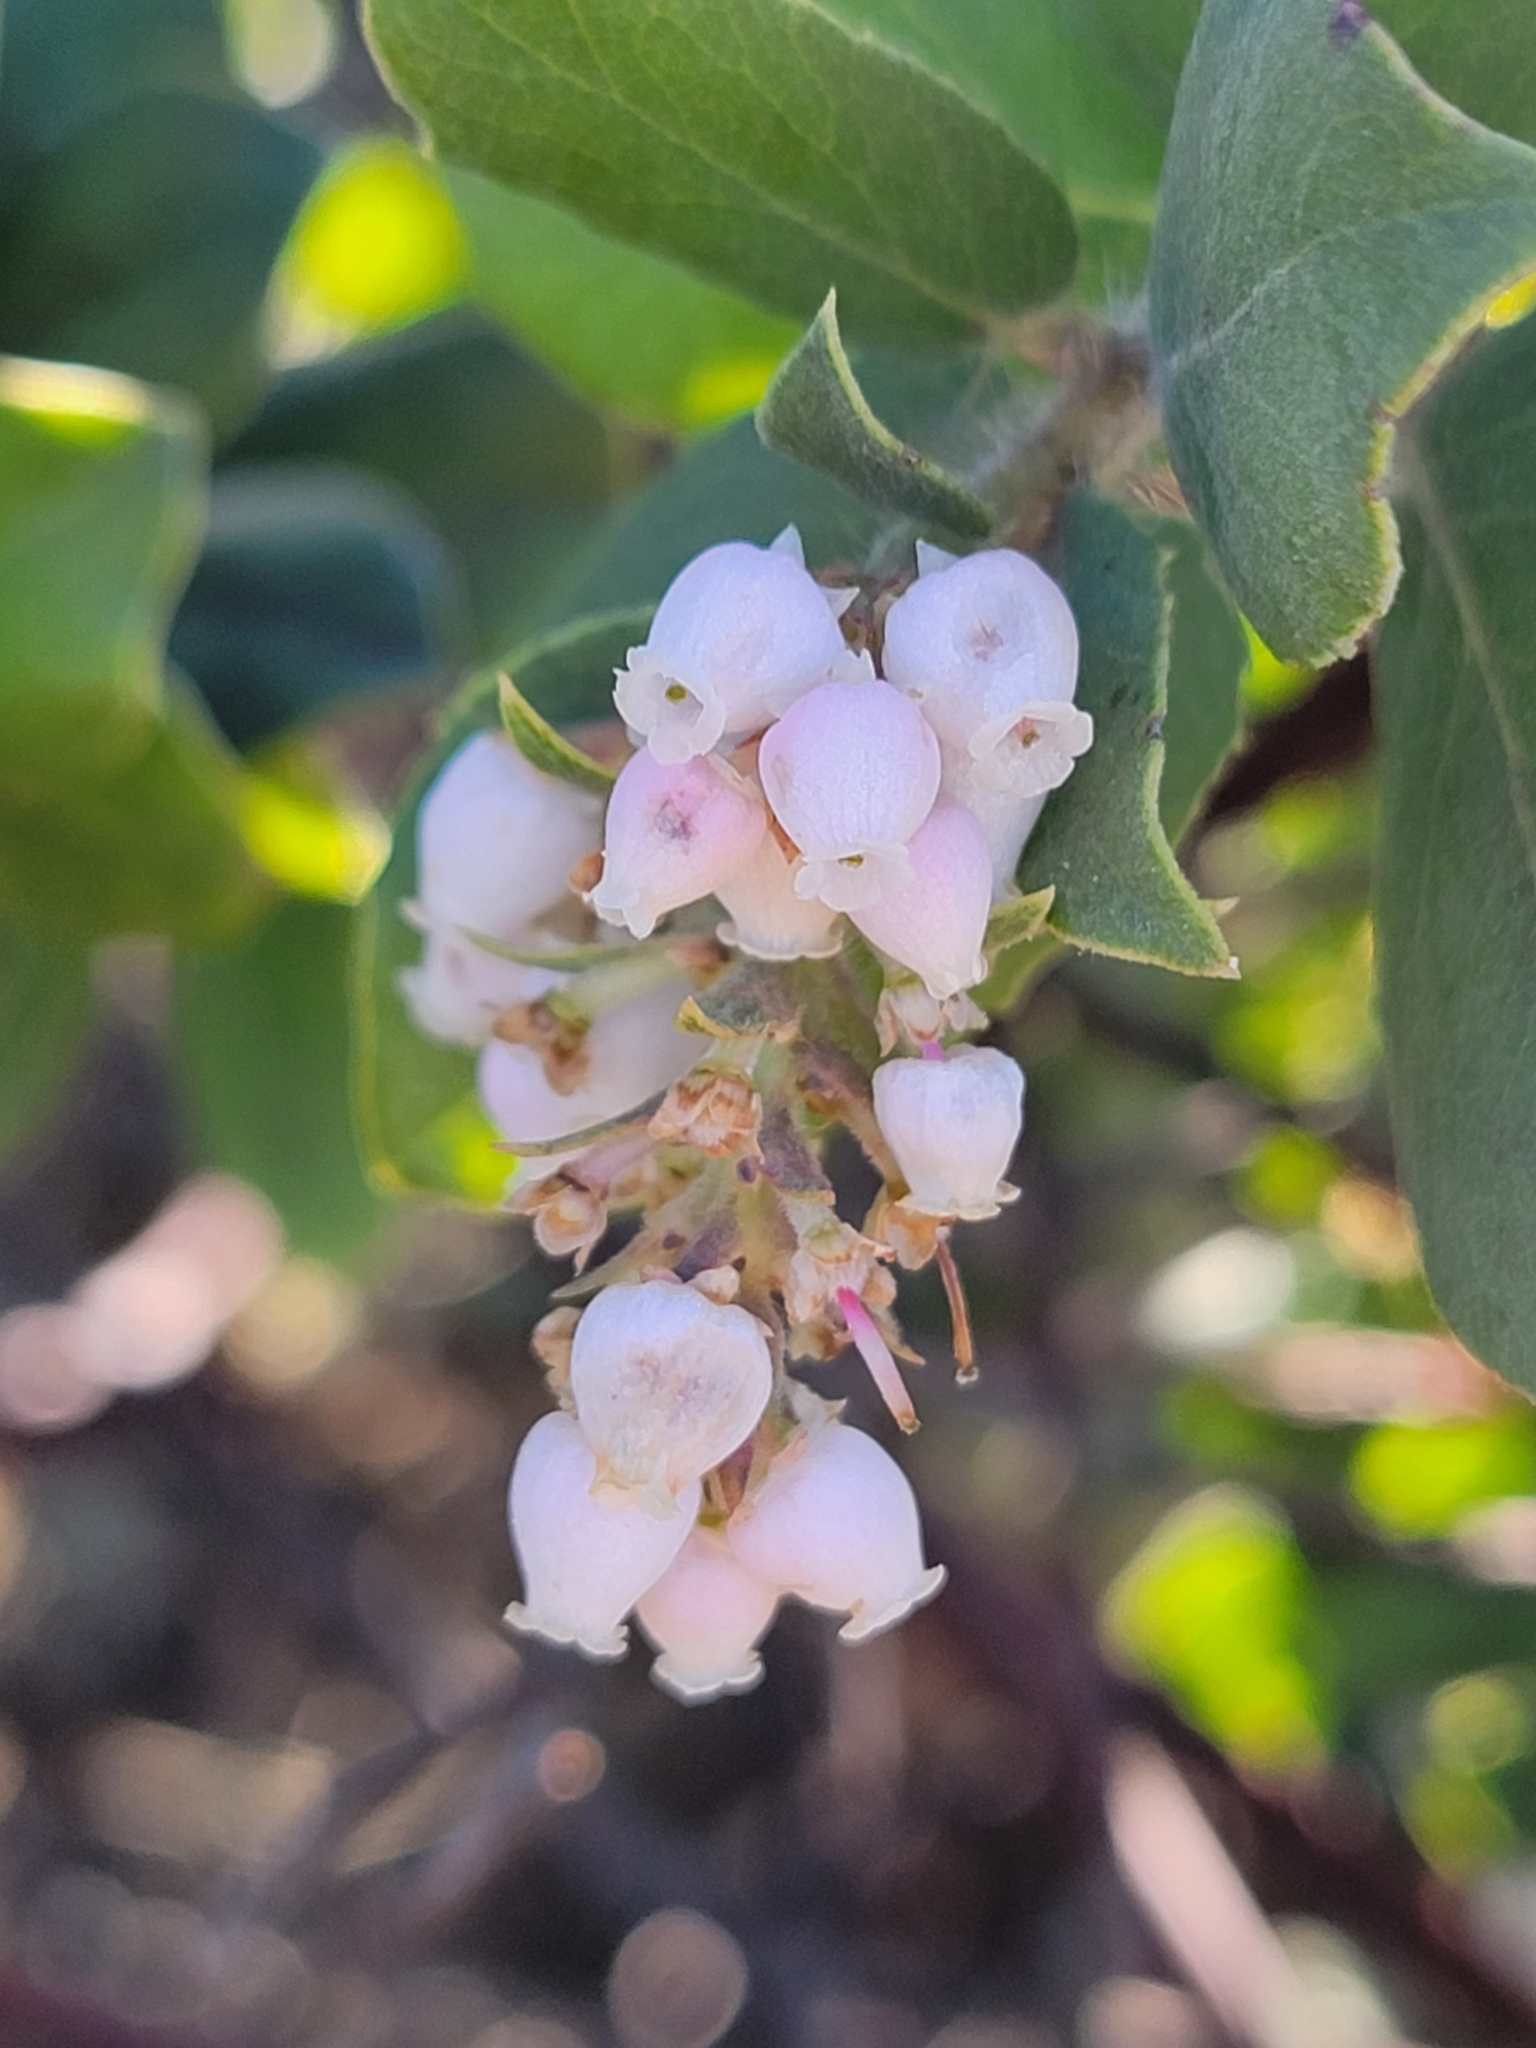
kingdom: Plantae
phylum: Tracheophyta
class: Magnoliopsida
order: Ericales
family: Ericaceae
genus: Arctostaphylos
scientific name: Arctostaphylos crustacea
